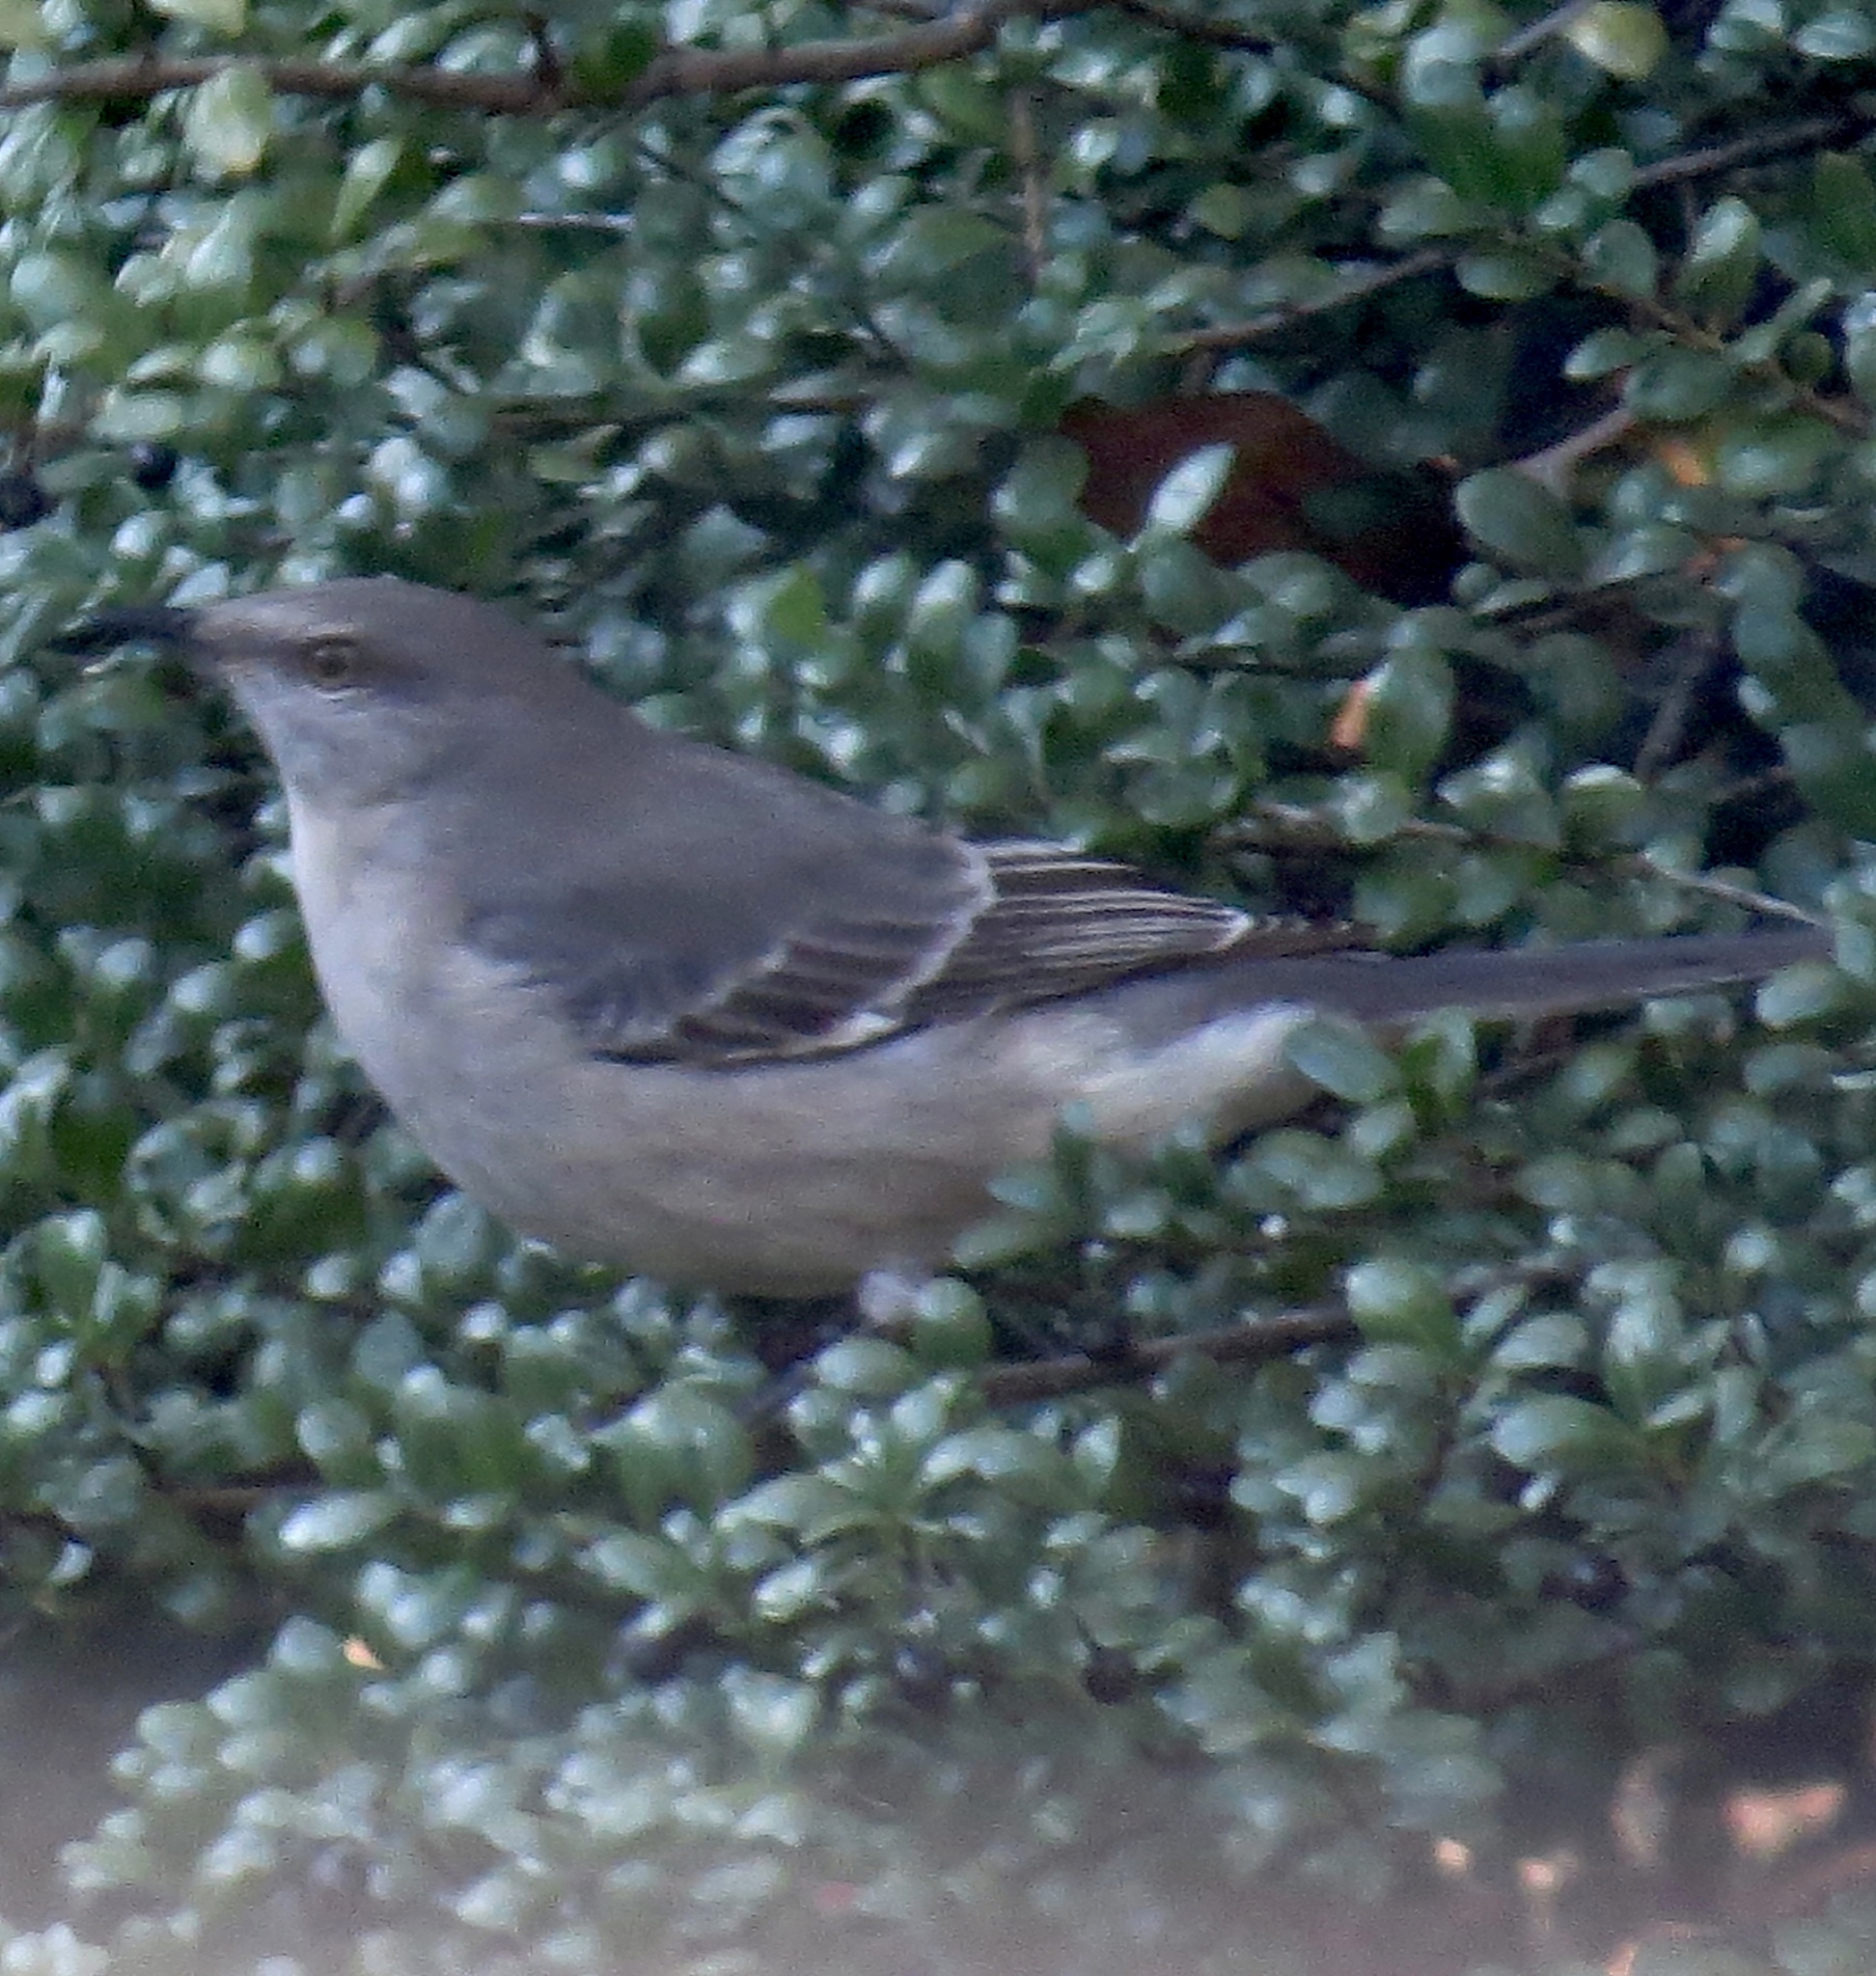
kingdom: Animalia
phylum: Chordata
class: Aves
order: Passeriformes
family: Mimidae
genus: Mimus
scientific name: Mimus polyglottos
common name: Northern mockingbird
